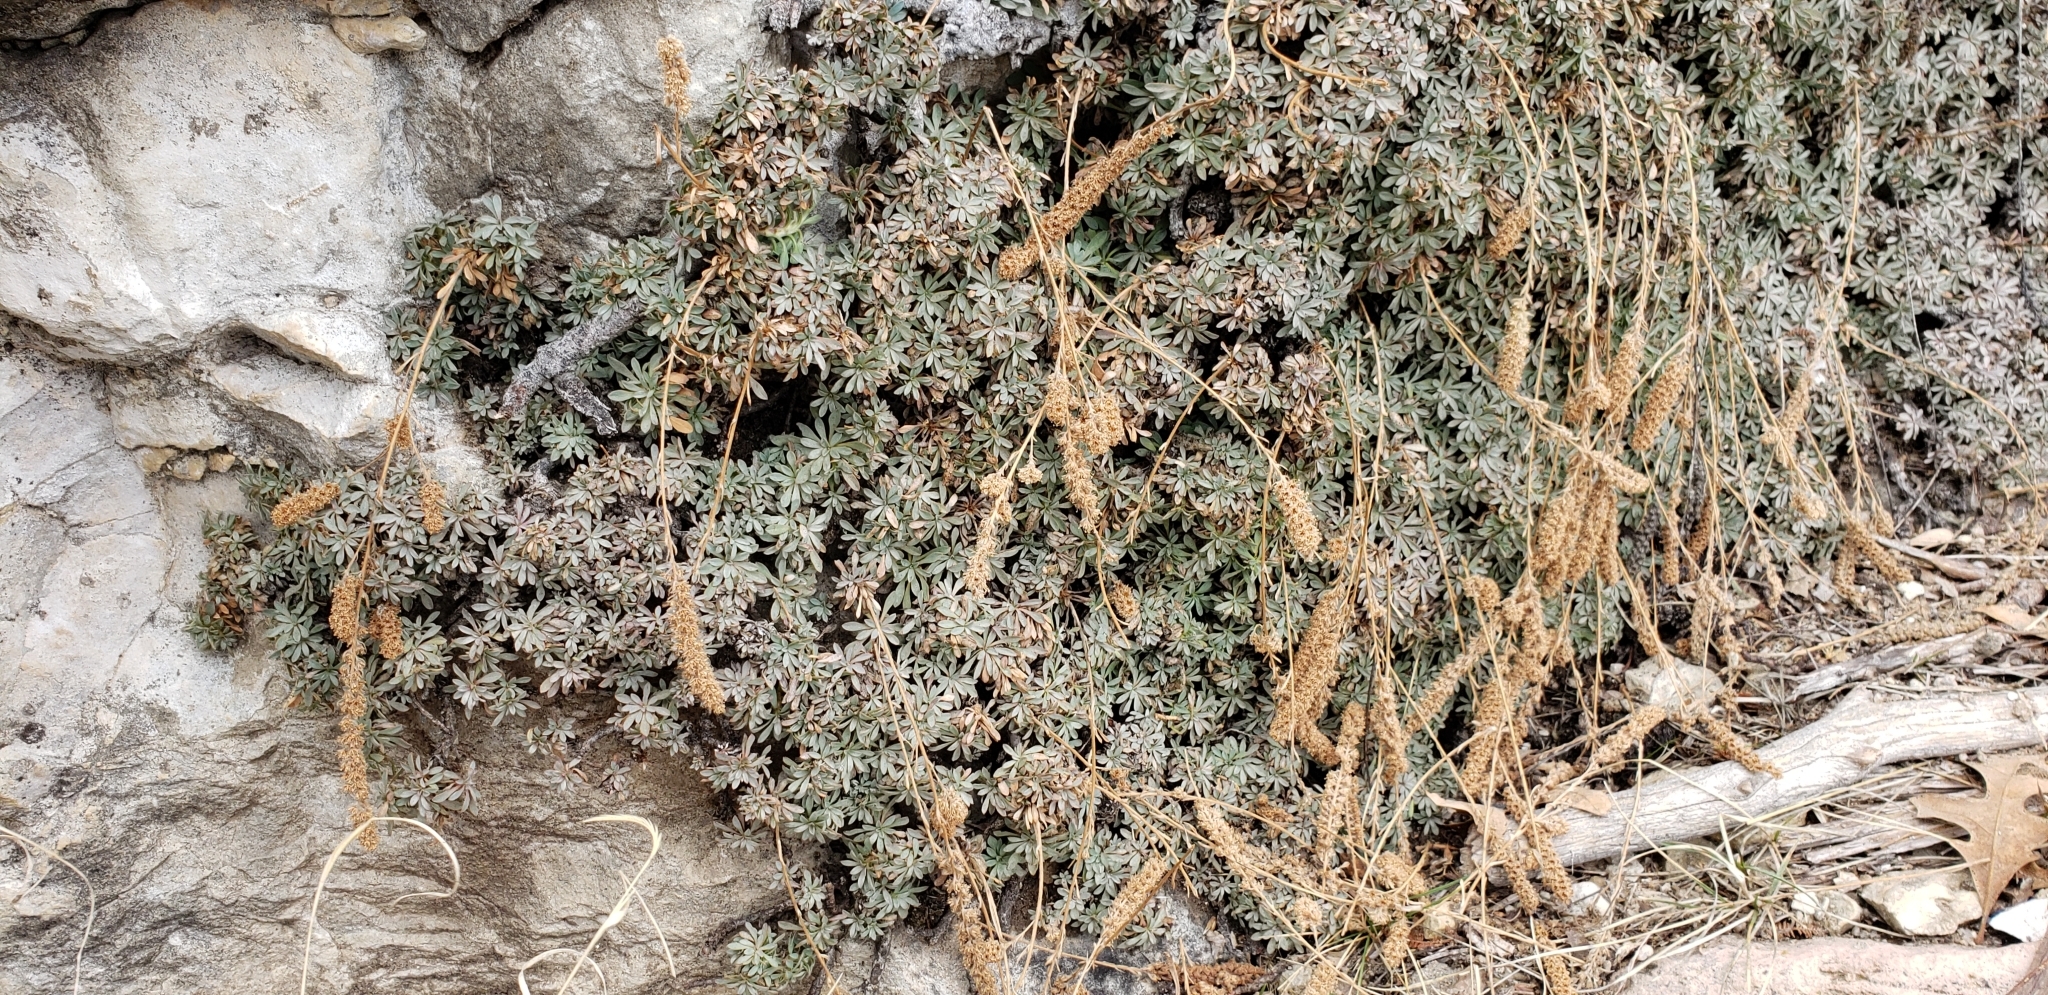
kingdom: Plantae
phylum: Tracheophyta
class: Magnoliopsida
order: Rosales
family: Rosaceae
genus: Petrophytum
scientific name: Petrophytum caespitosum
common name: Mat rockspirea
